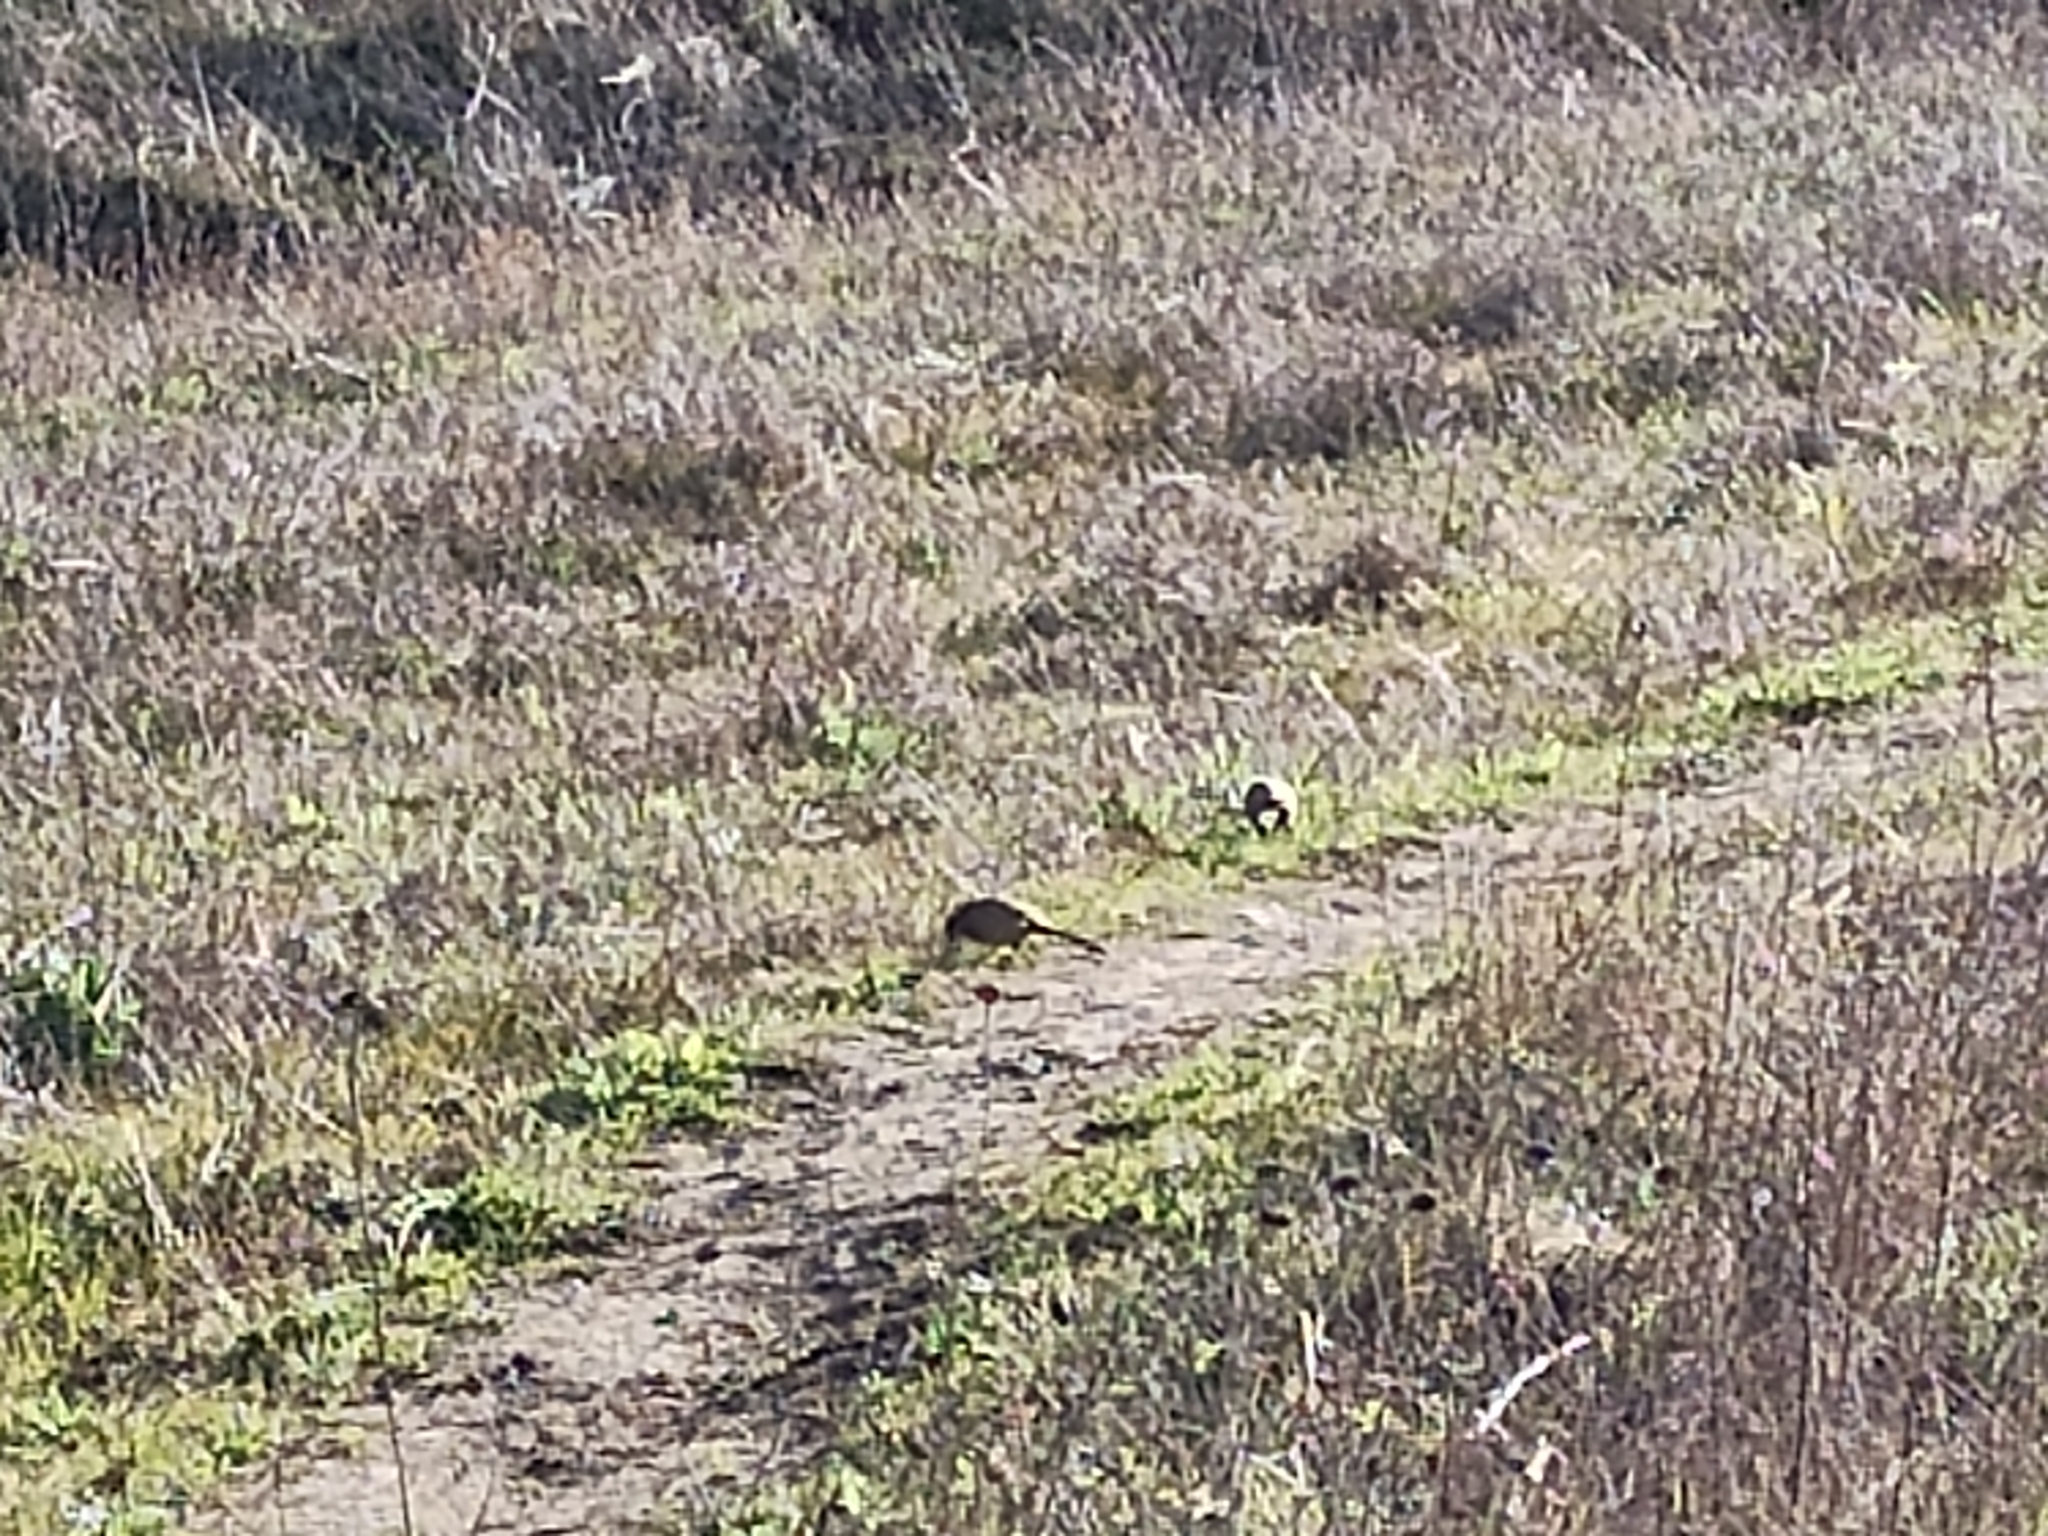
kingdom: Animalia
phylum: Chordata
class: Aves
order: Passeriformes
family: Passerellidae
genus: Melozone
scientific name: Melozone crissalis
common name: California towhee
